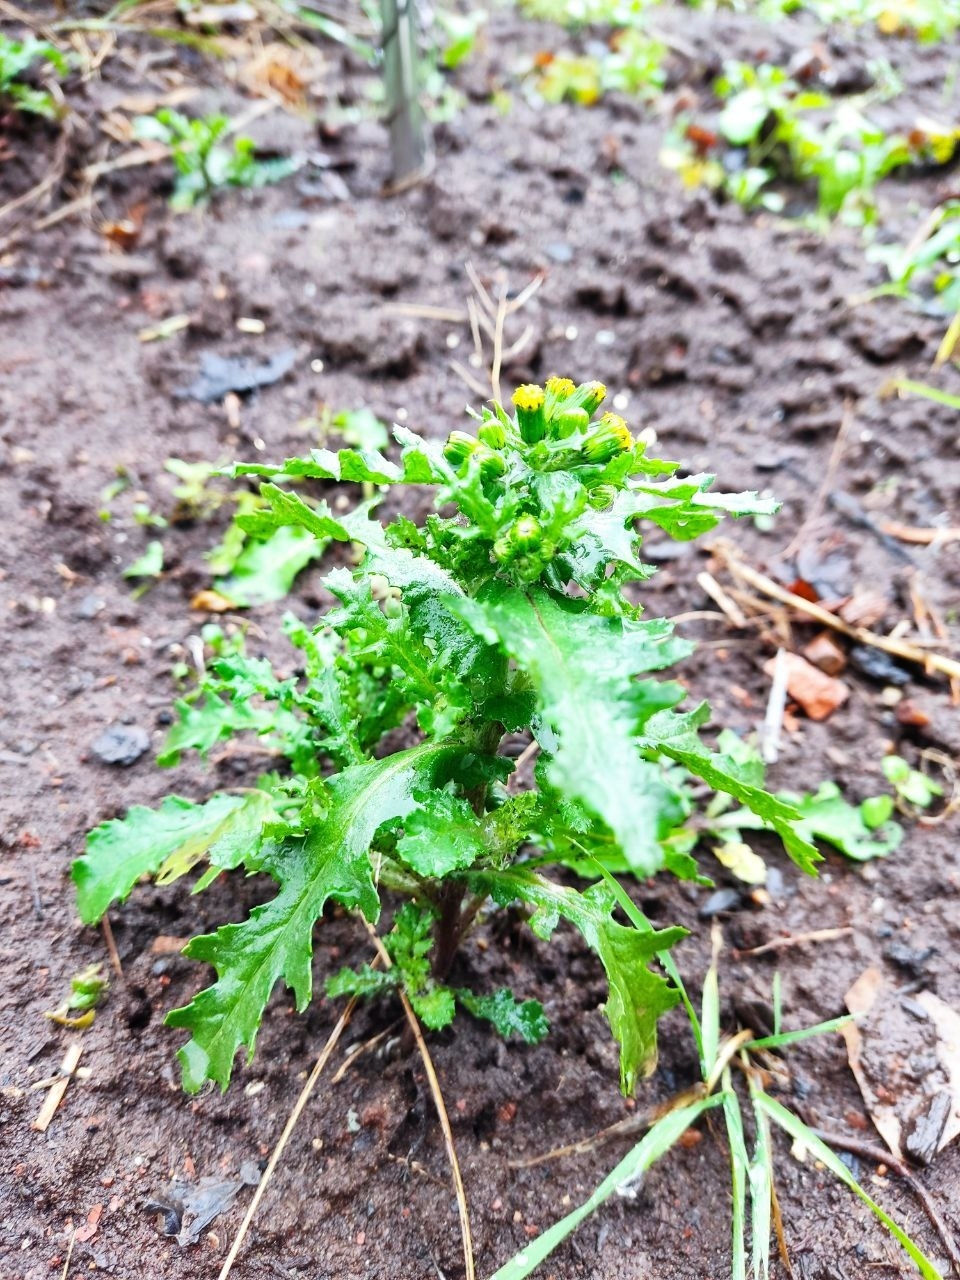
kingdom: Plantae
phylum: Tracheophyta
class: Magnoliopsida
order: Asterales
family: Asteraceae
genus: Senecio
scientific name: Senecio vulgaris
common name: Old-man-in-the-spring
